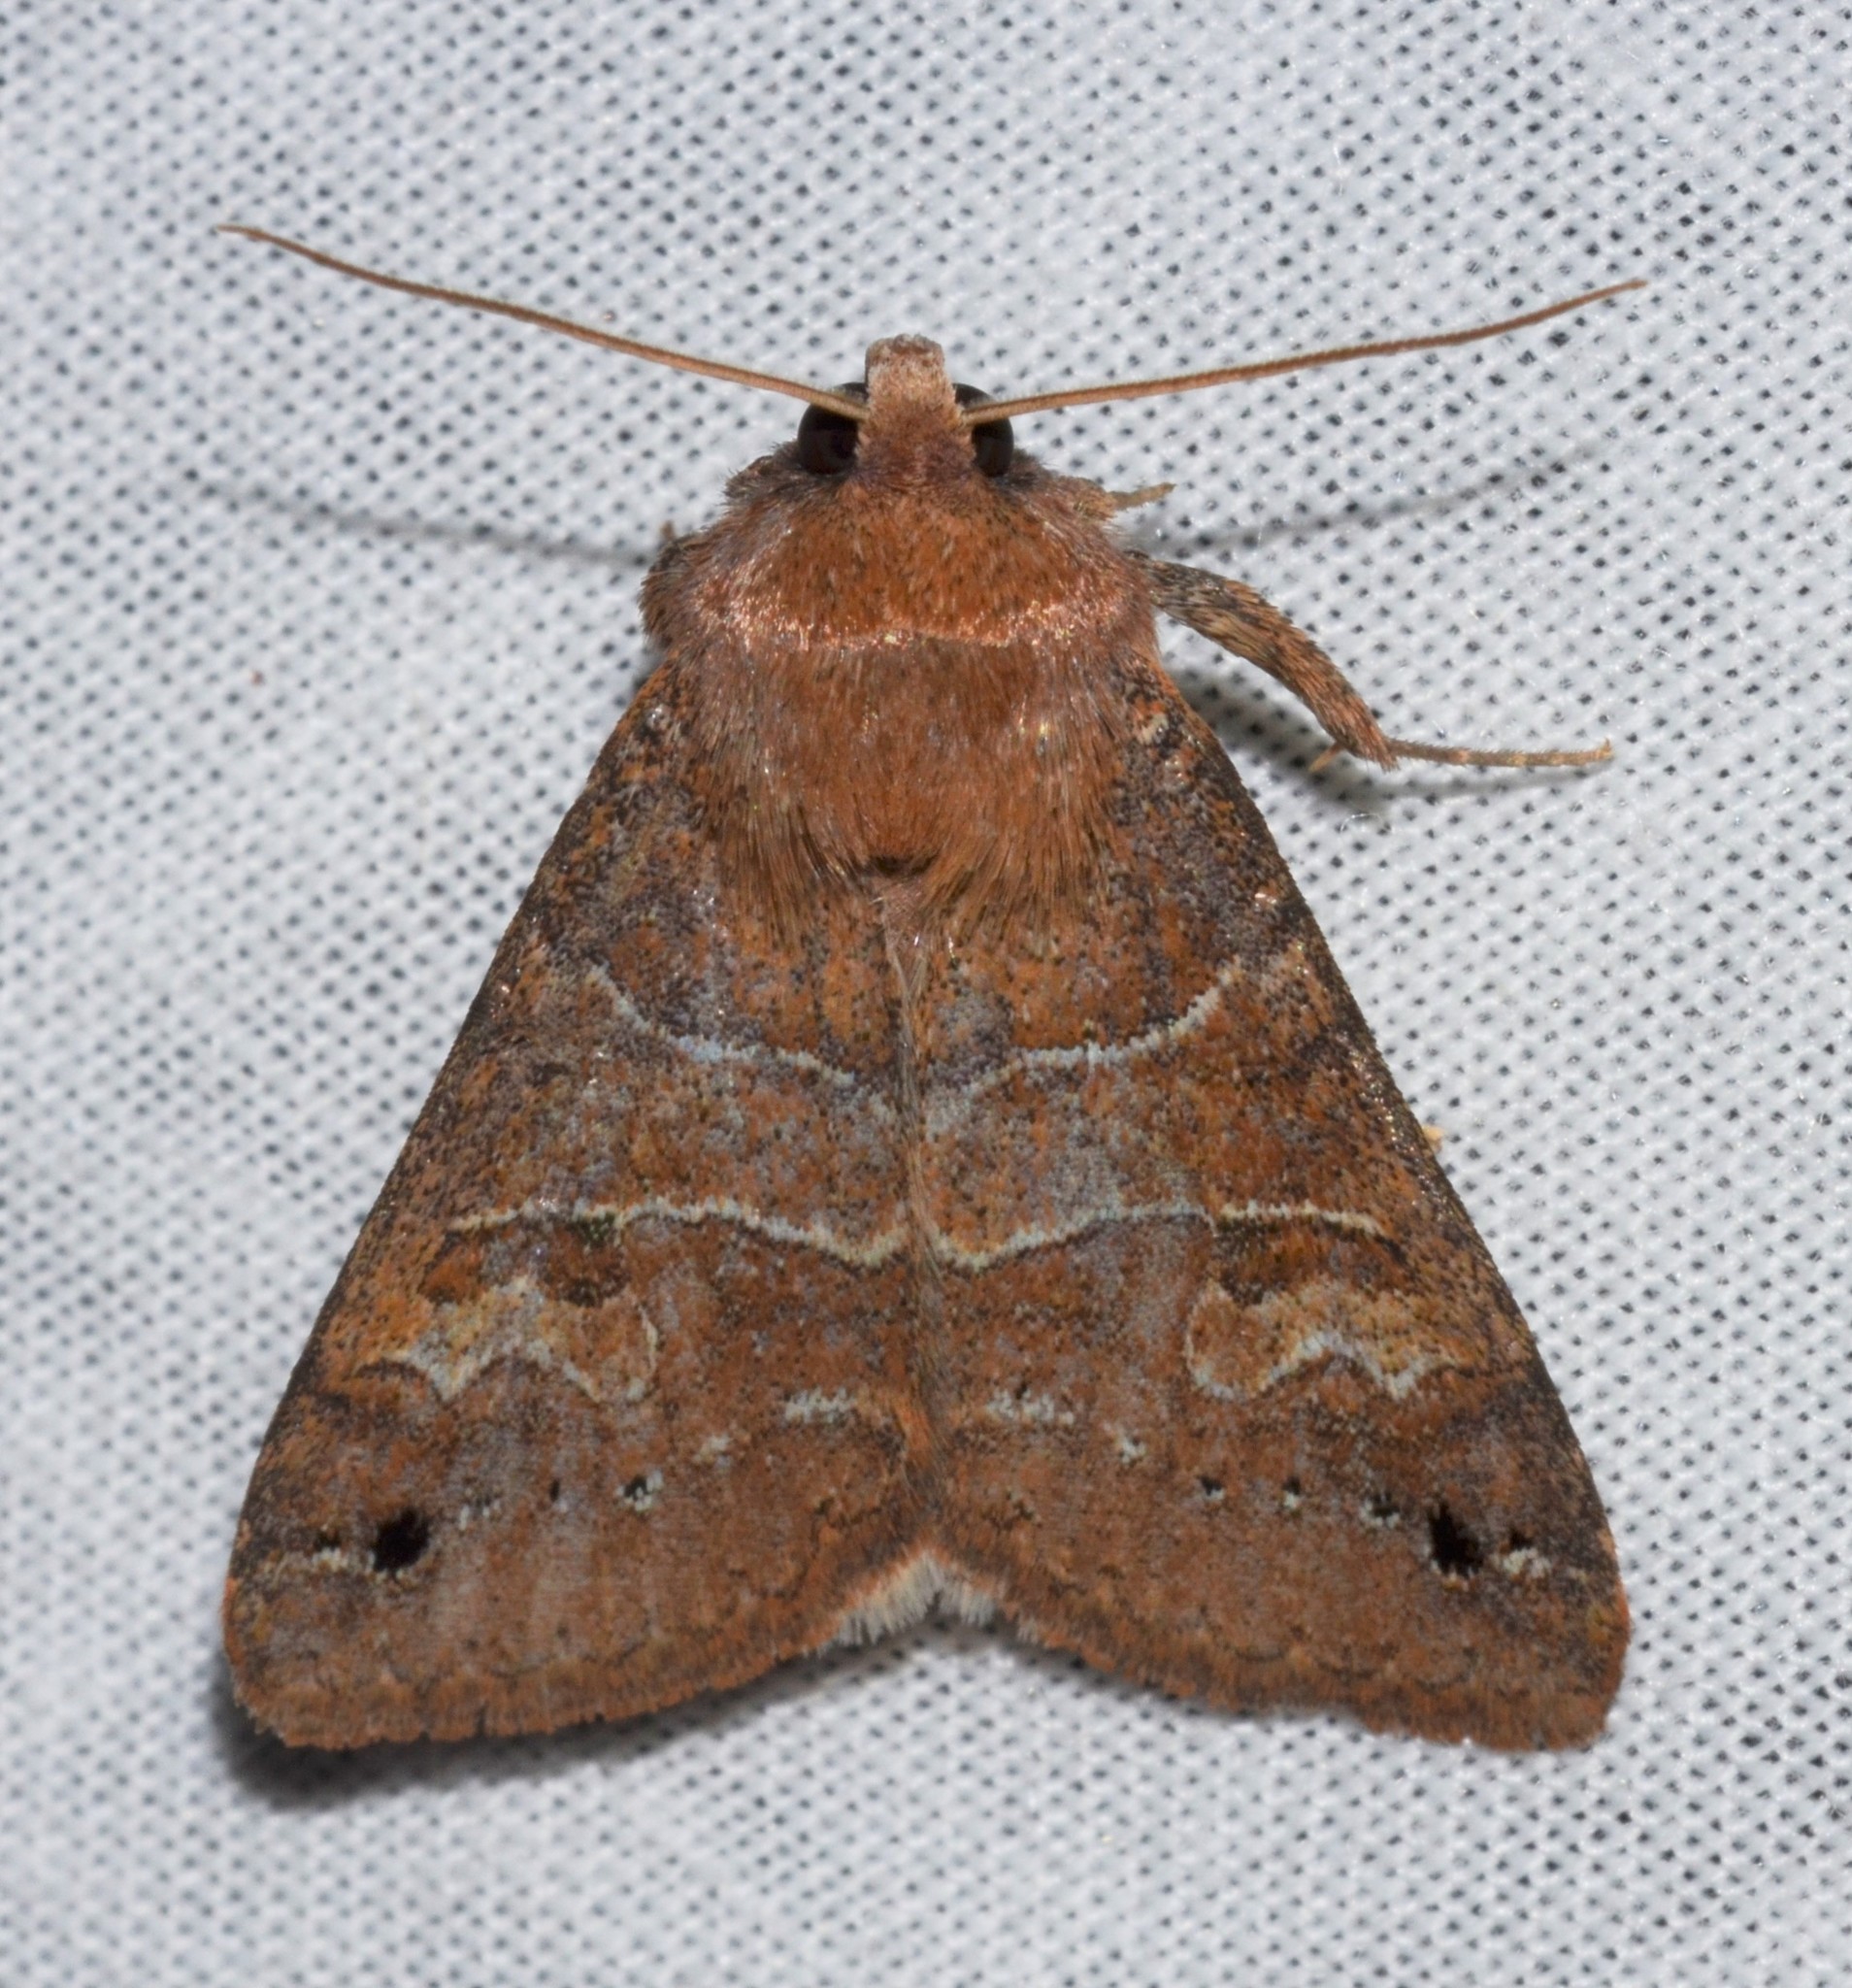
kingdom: Animalia
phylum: Arthropoda
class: Insecta
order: Lepidoptera
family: Erebidae
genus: Cissusa
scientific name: Cissusa spadix
